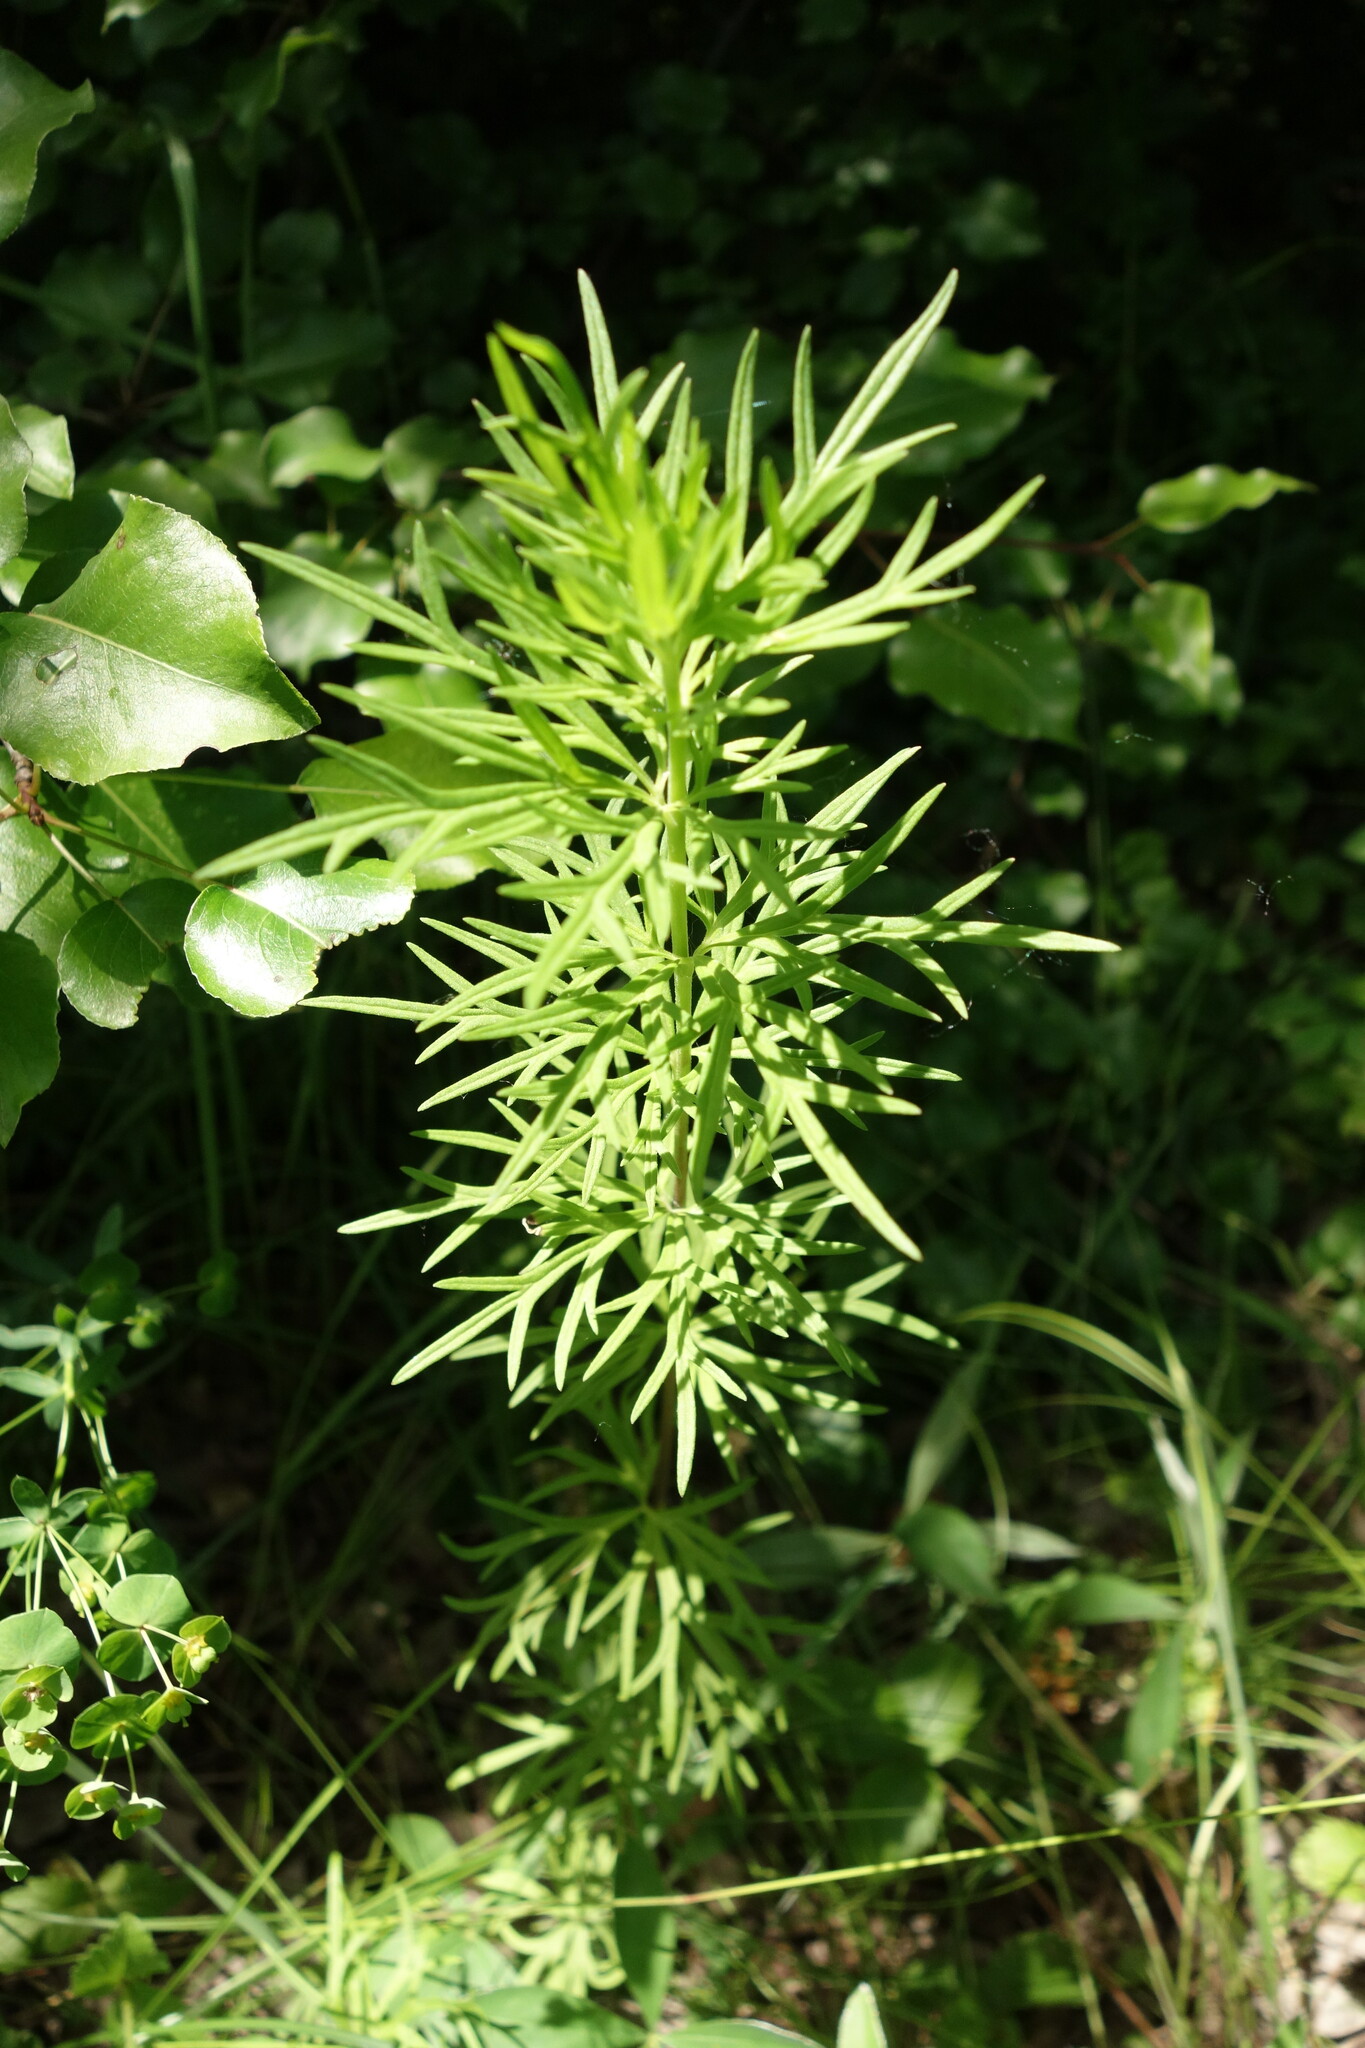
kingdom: Plantae
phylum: Tracheophyta
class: Magnoliopsida
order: Ranunculales
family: Ranunculaceae
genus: Aconitum
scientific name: Aconitum anthora
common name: Yellow monkshood
